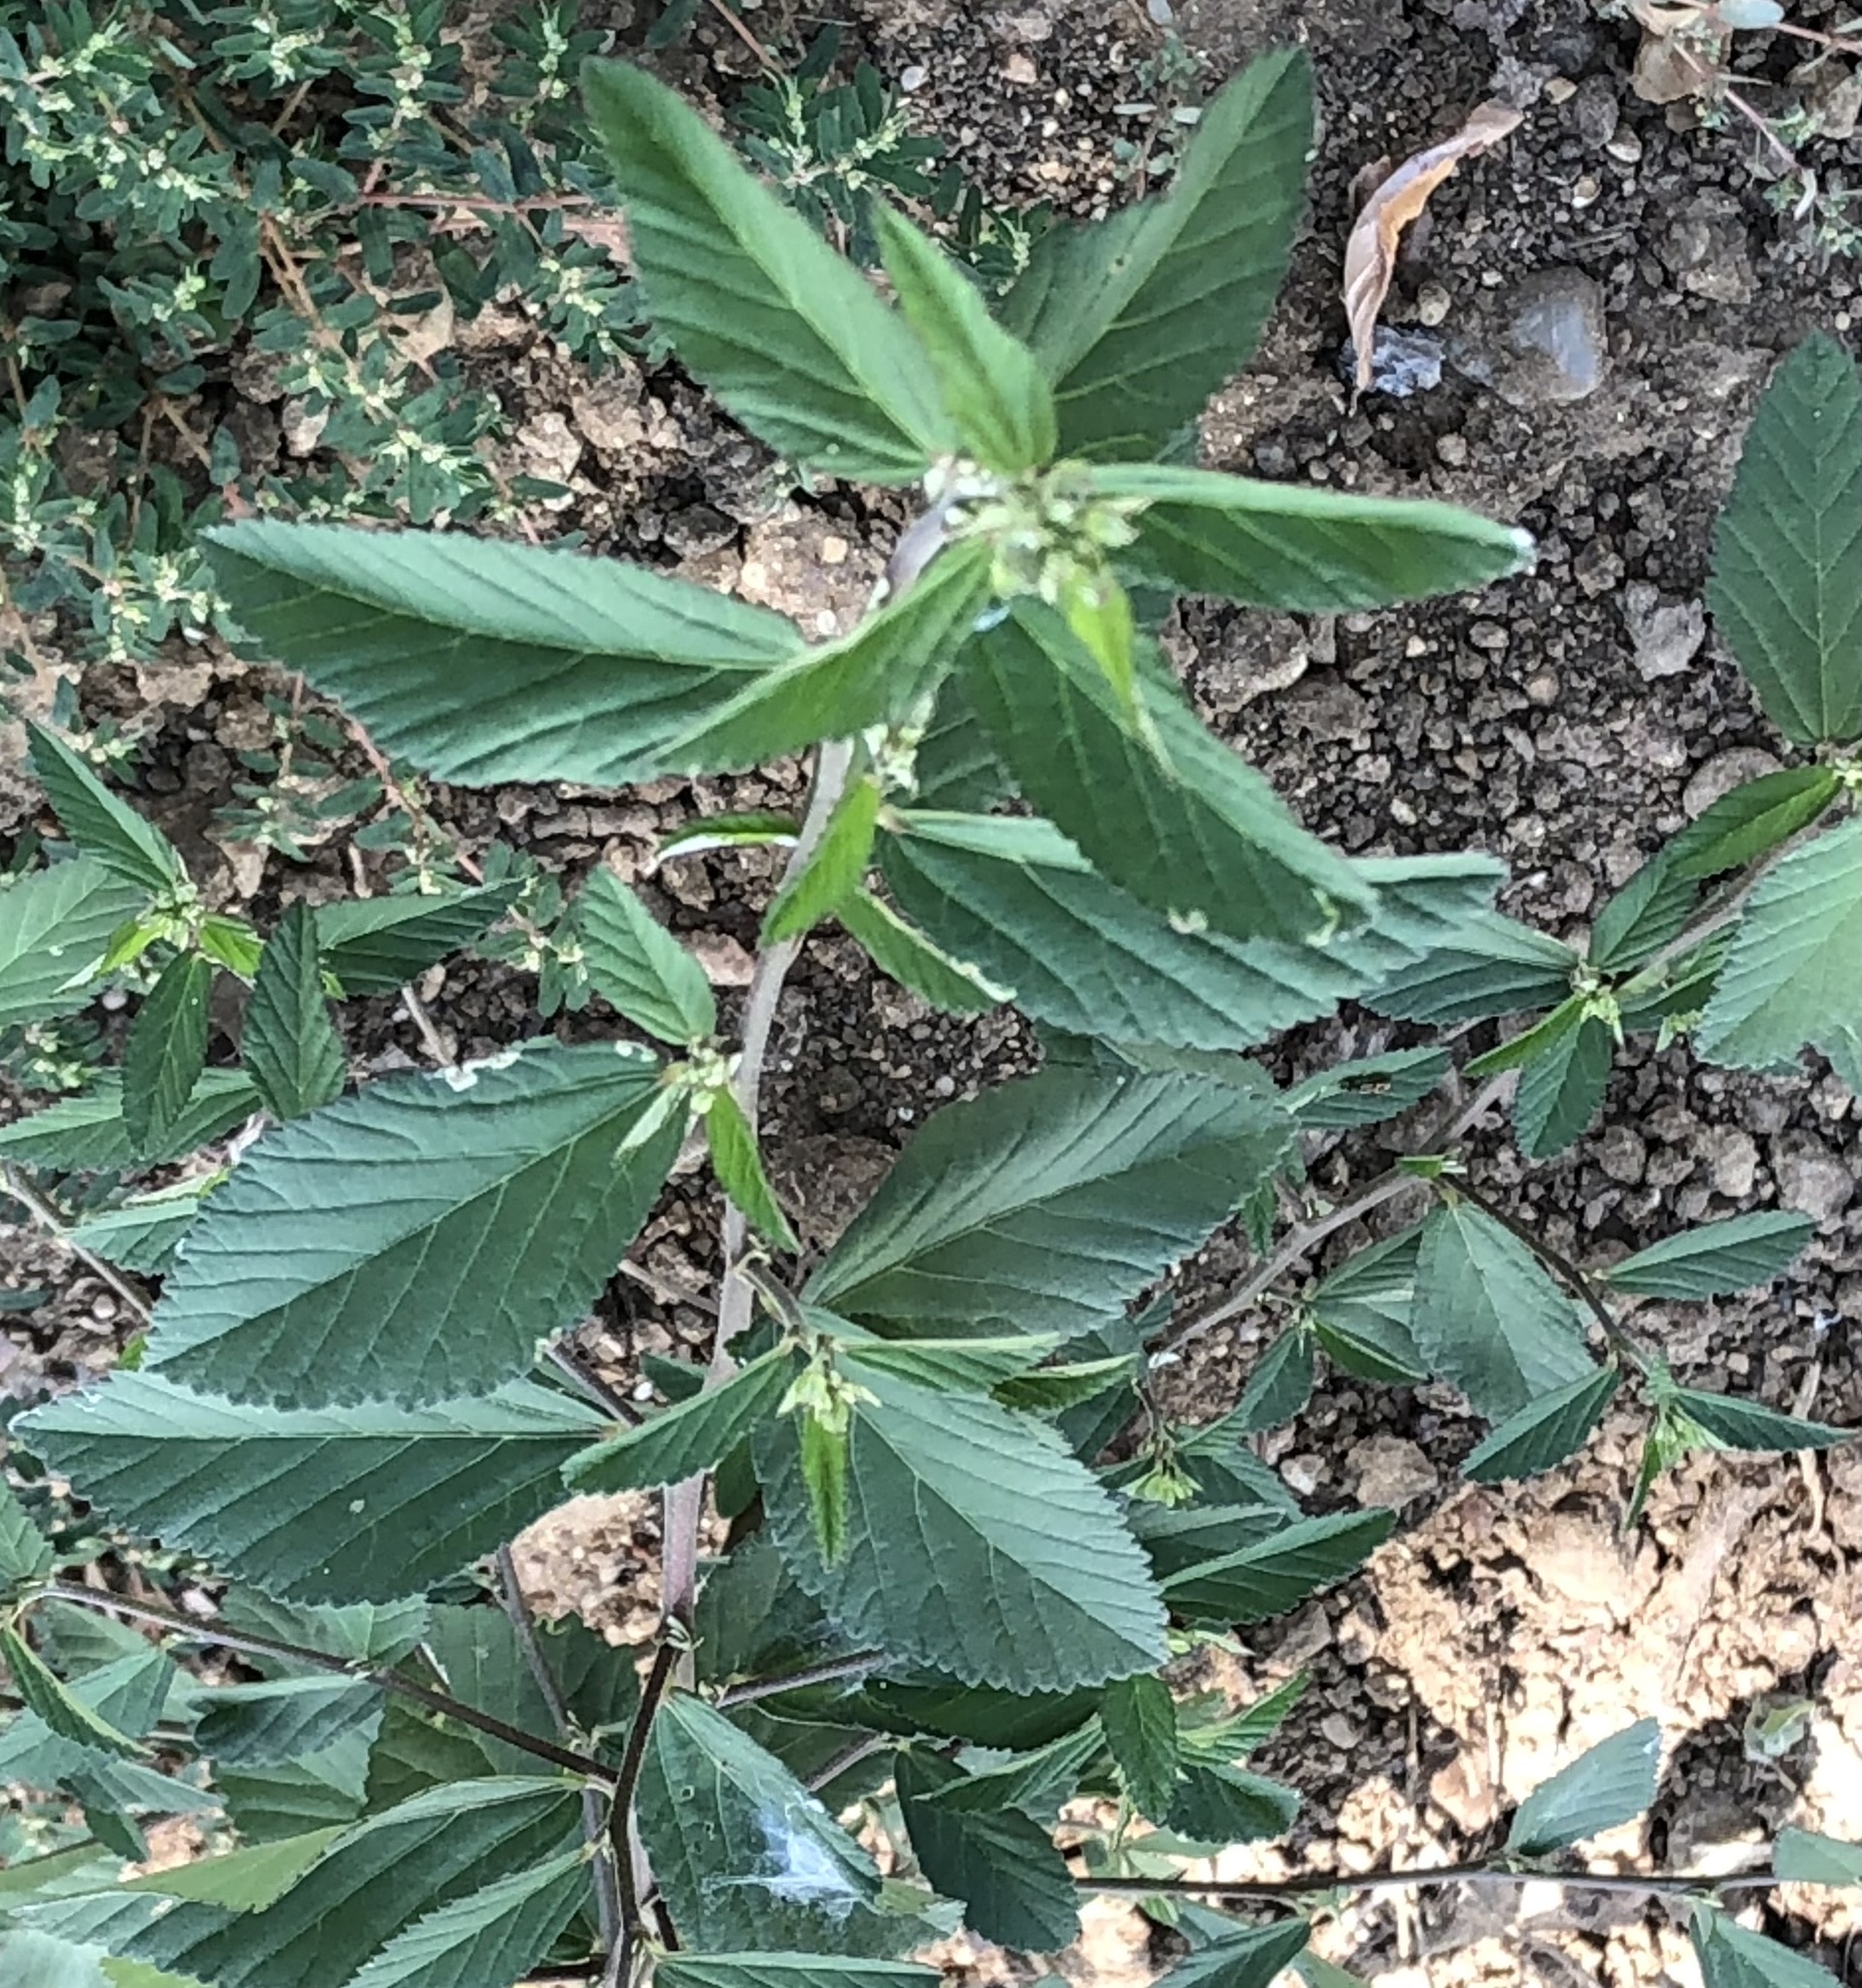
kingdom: Plantae
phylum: Tracheophyta
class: Magnoliopsida
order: Malvales
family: Malvaceae
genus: Sida
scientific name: Sida rhombifolia
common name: Queensland-hemp
